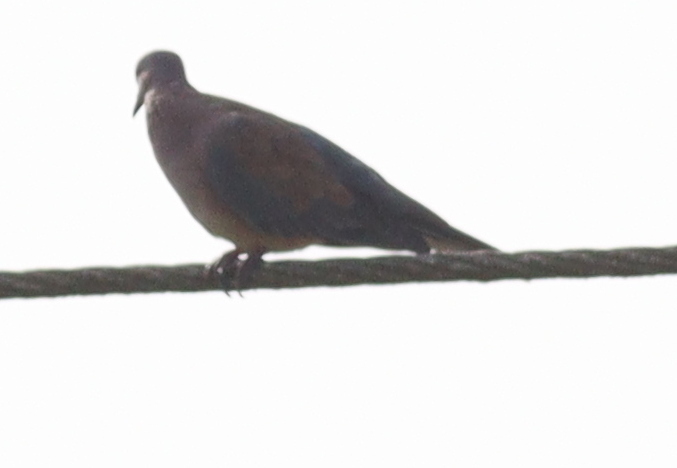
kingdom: Animalia
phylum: Chordata
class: Aves
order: Columbiformes
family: Columbidae
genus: Spilopelia
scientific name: Spilopelia senegalensis
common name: Laughing dove
